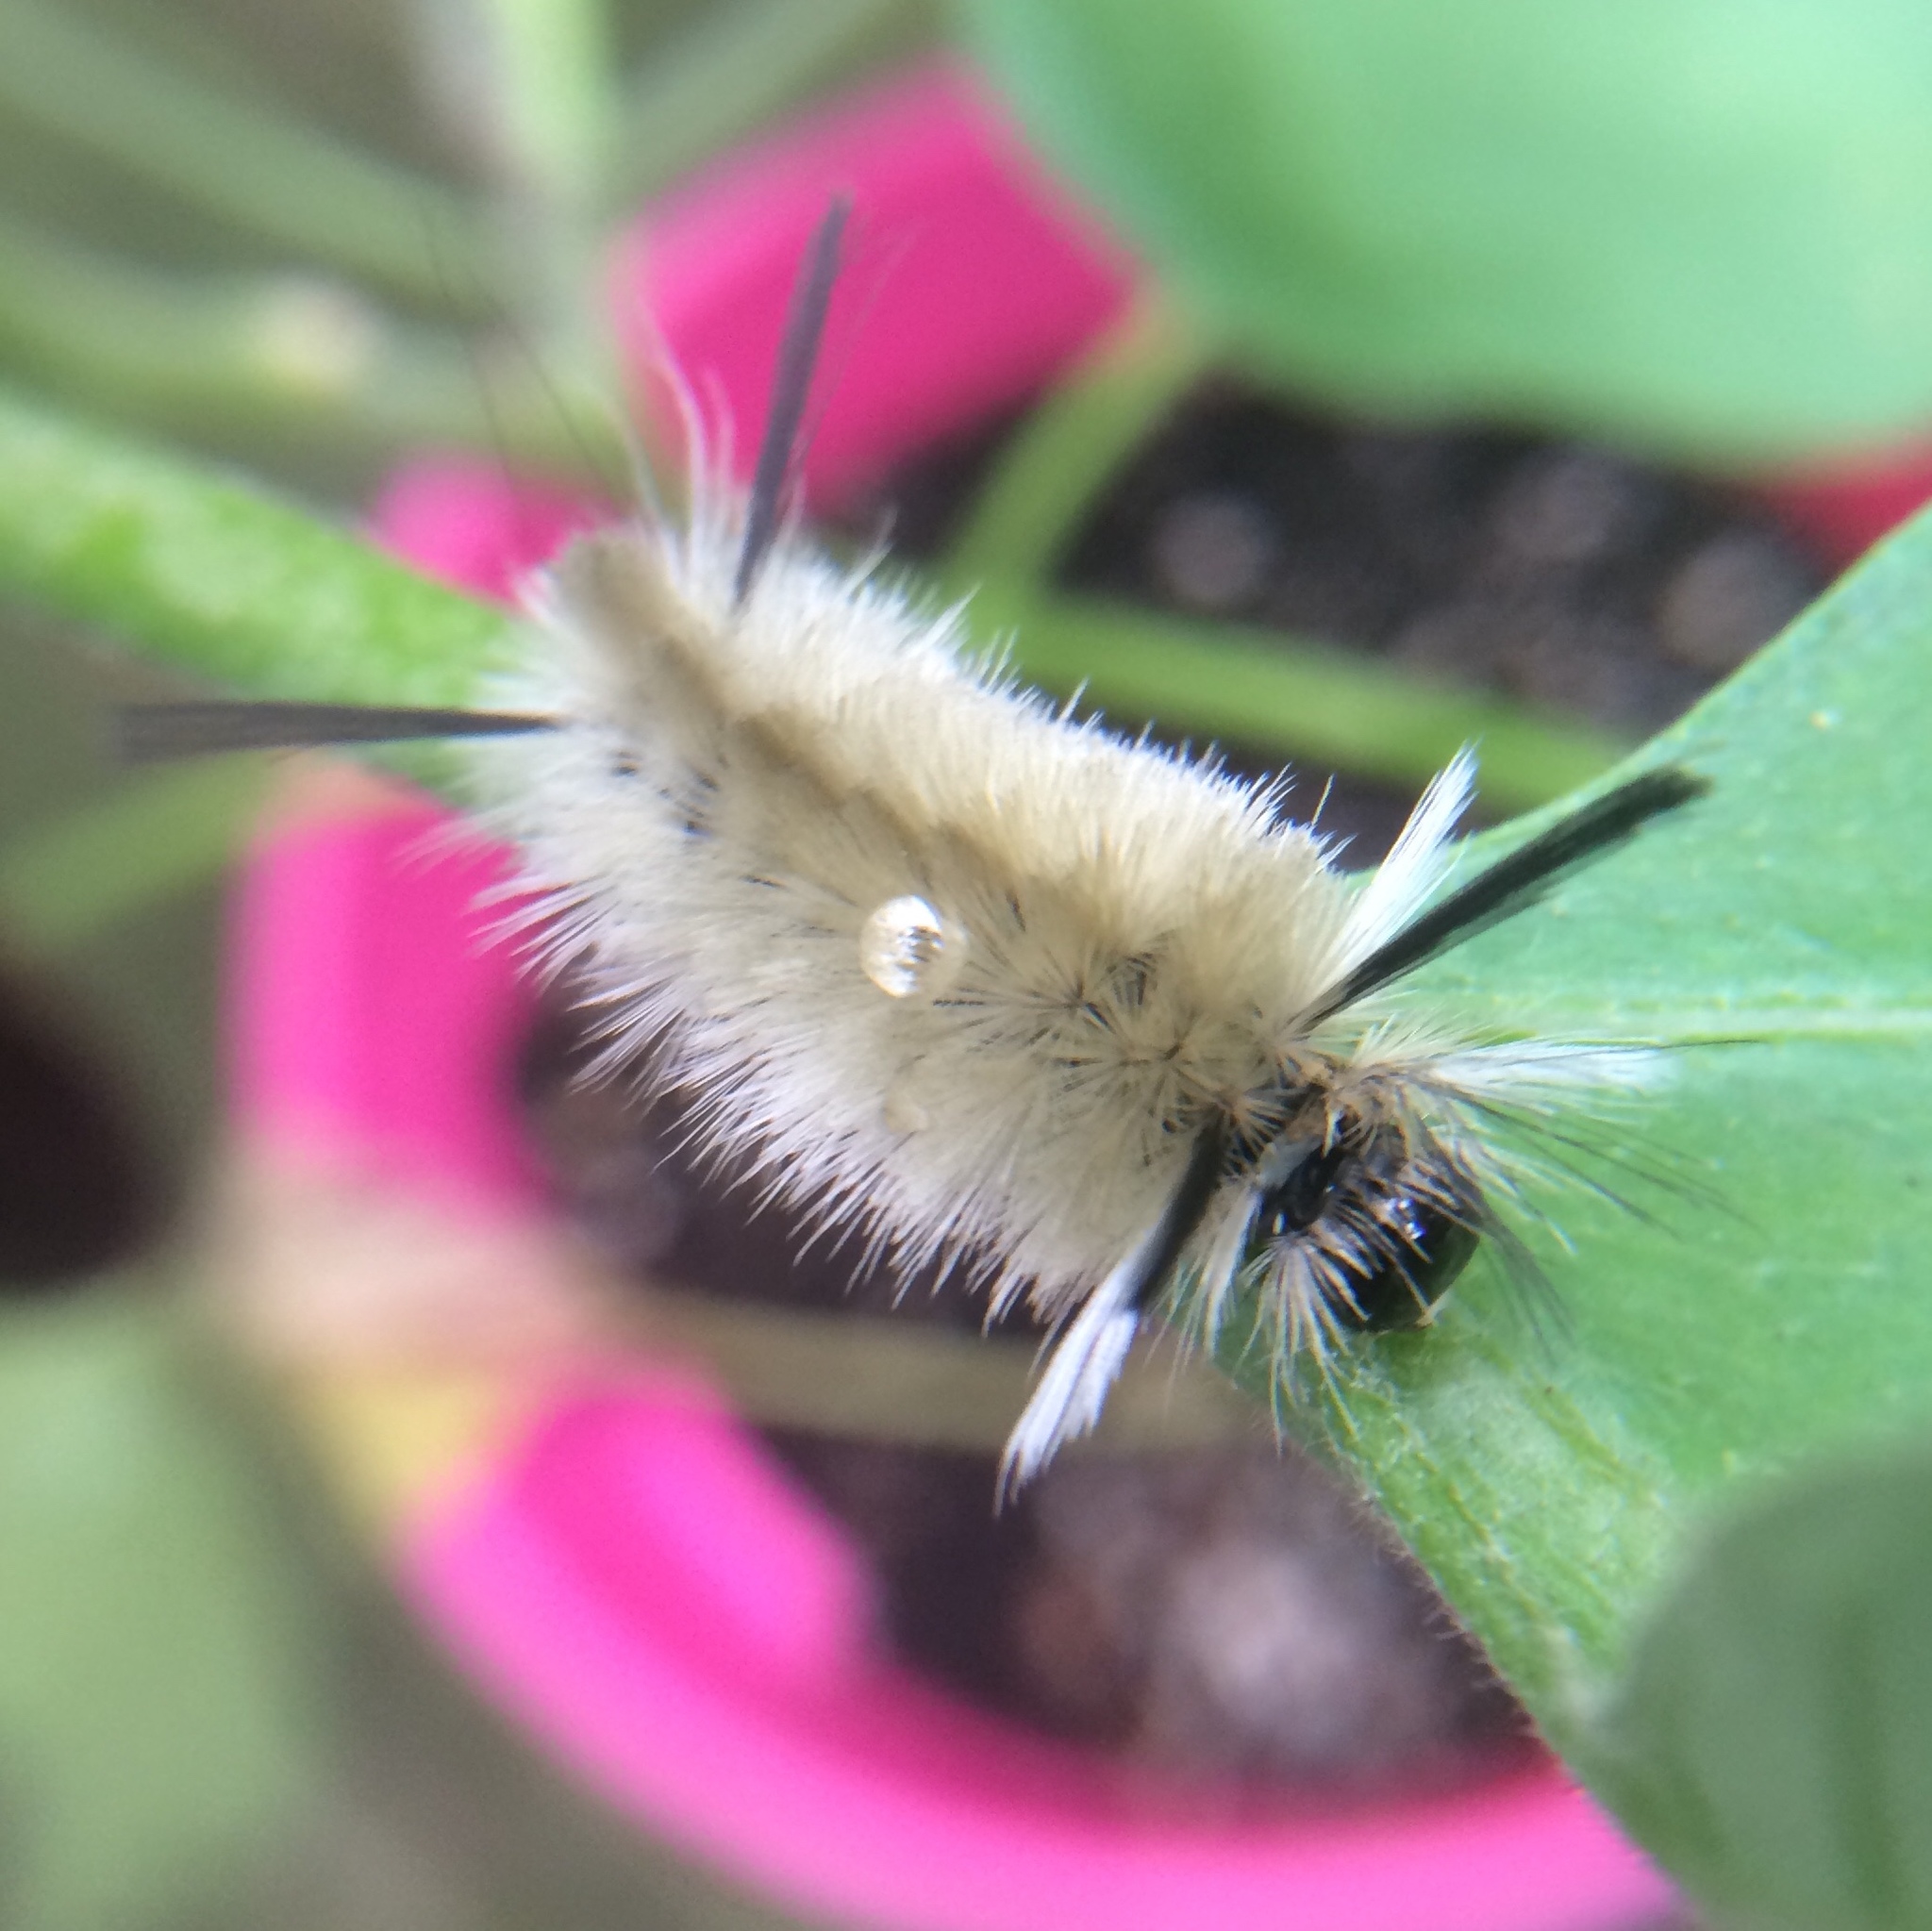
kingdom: Animalia
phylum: Arthropoda
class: Insecta
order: Lepidoptera
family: Erebidae
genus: Halysidota
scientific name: Halysidota tessellaris
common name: Banded tussock moth
